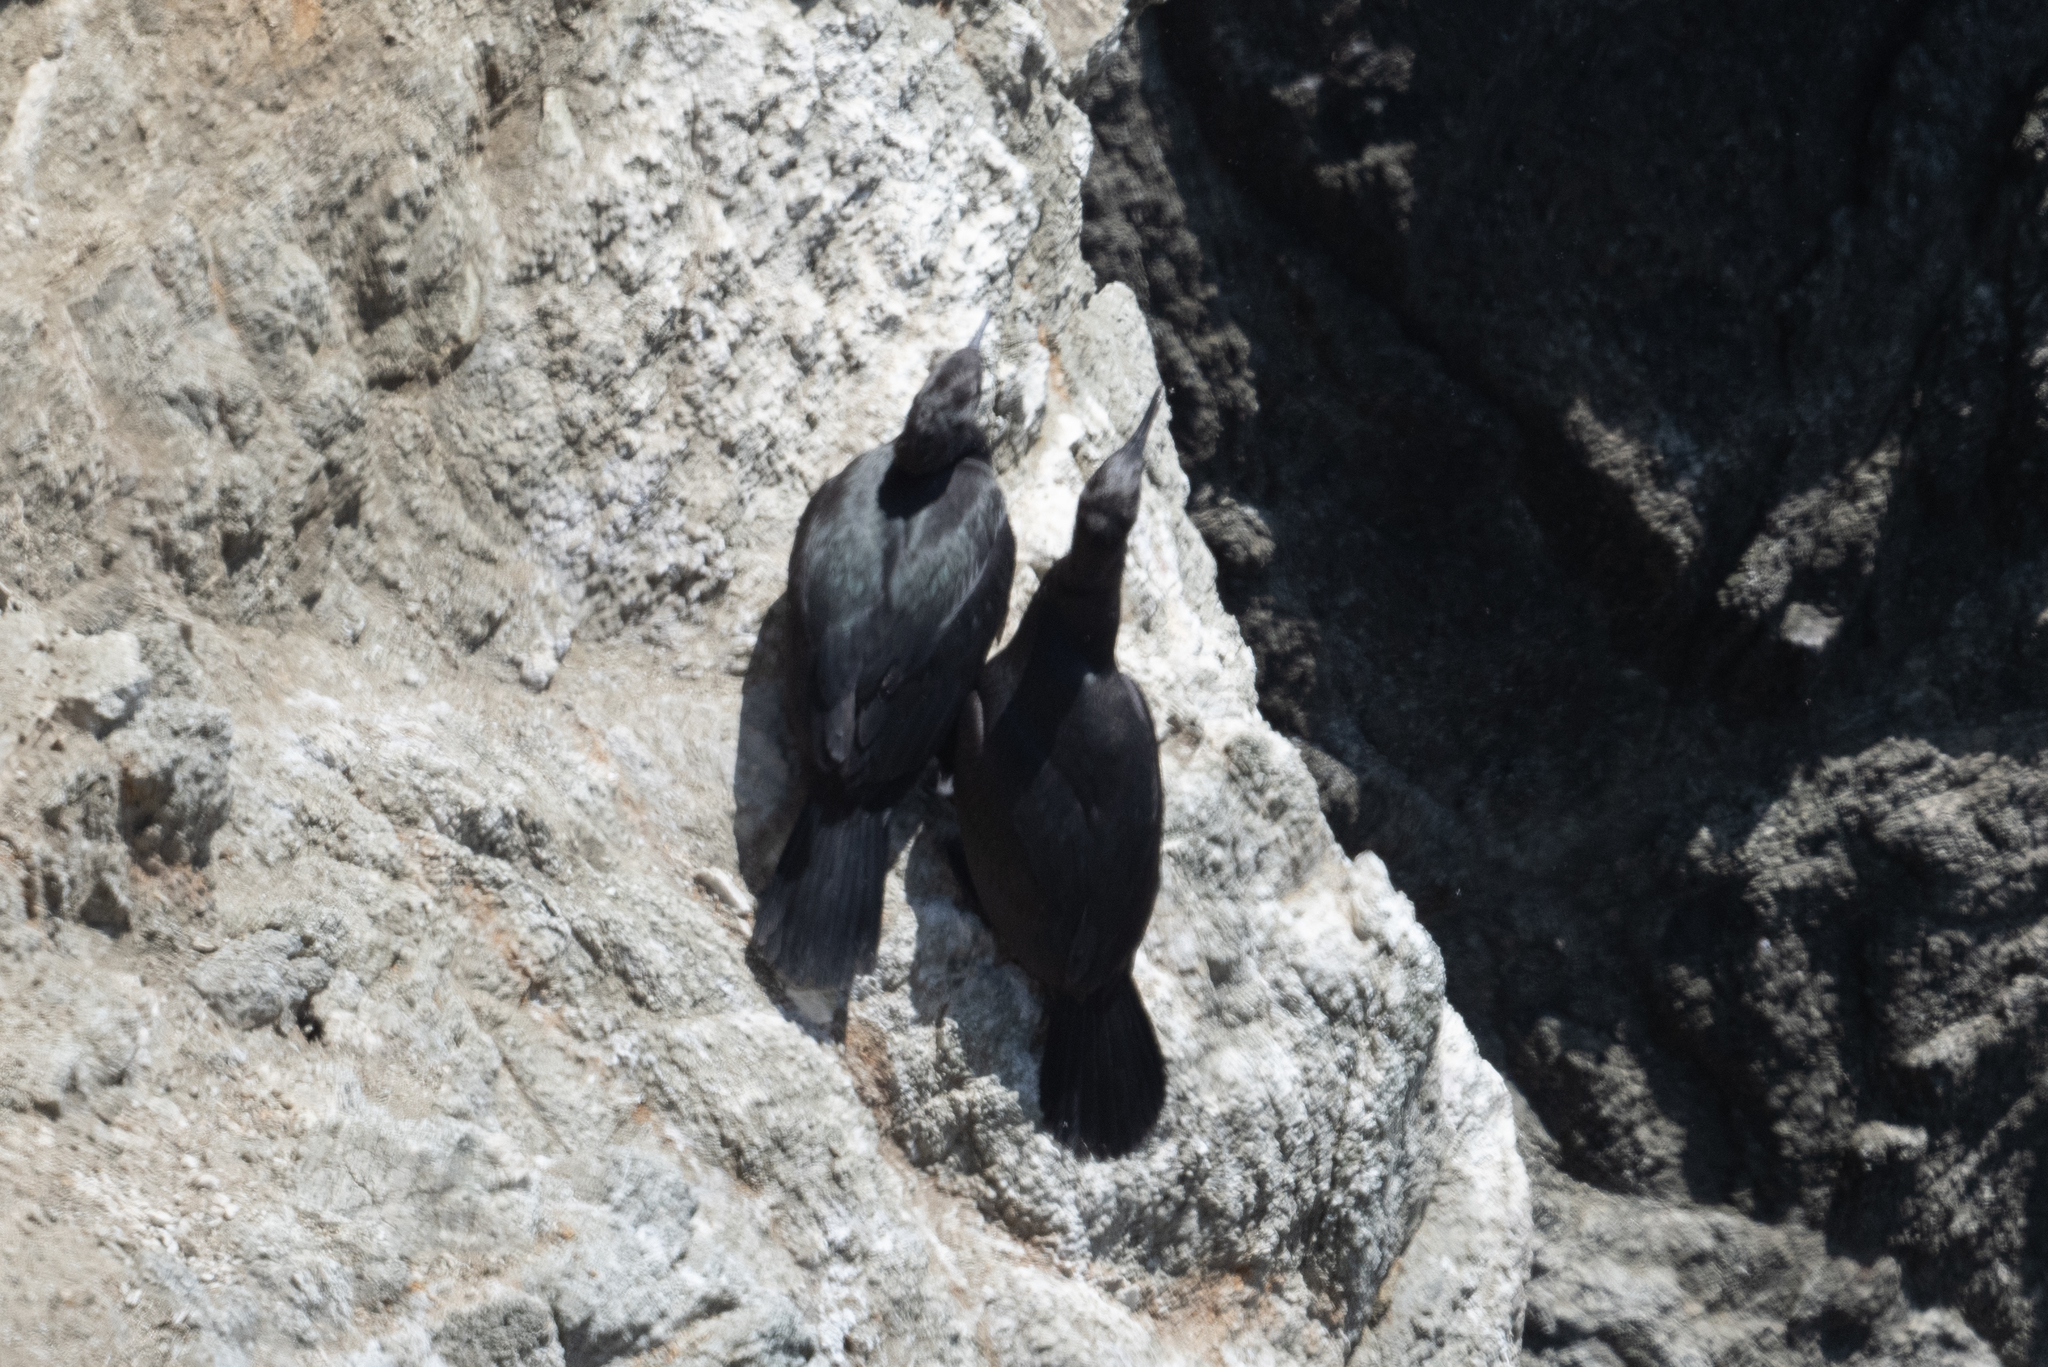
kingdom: Animalia
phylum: Chordata
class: Aves
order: Suliformes
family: Phalacrocoracidae
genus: Phalacrocorax
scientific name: Phalacrocorax pelagicus
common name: Pelagic cormorant
